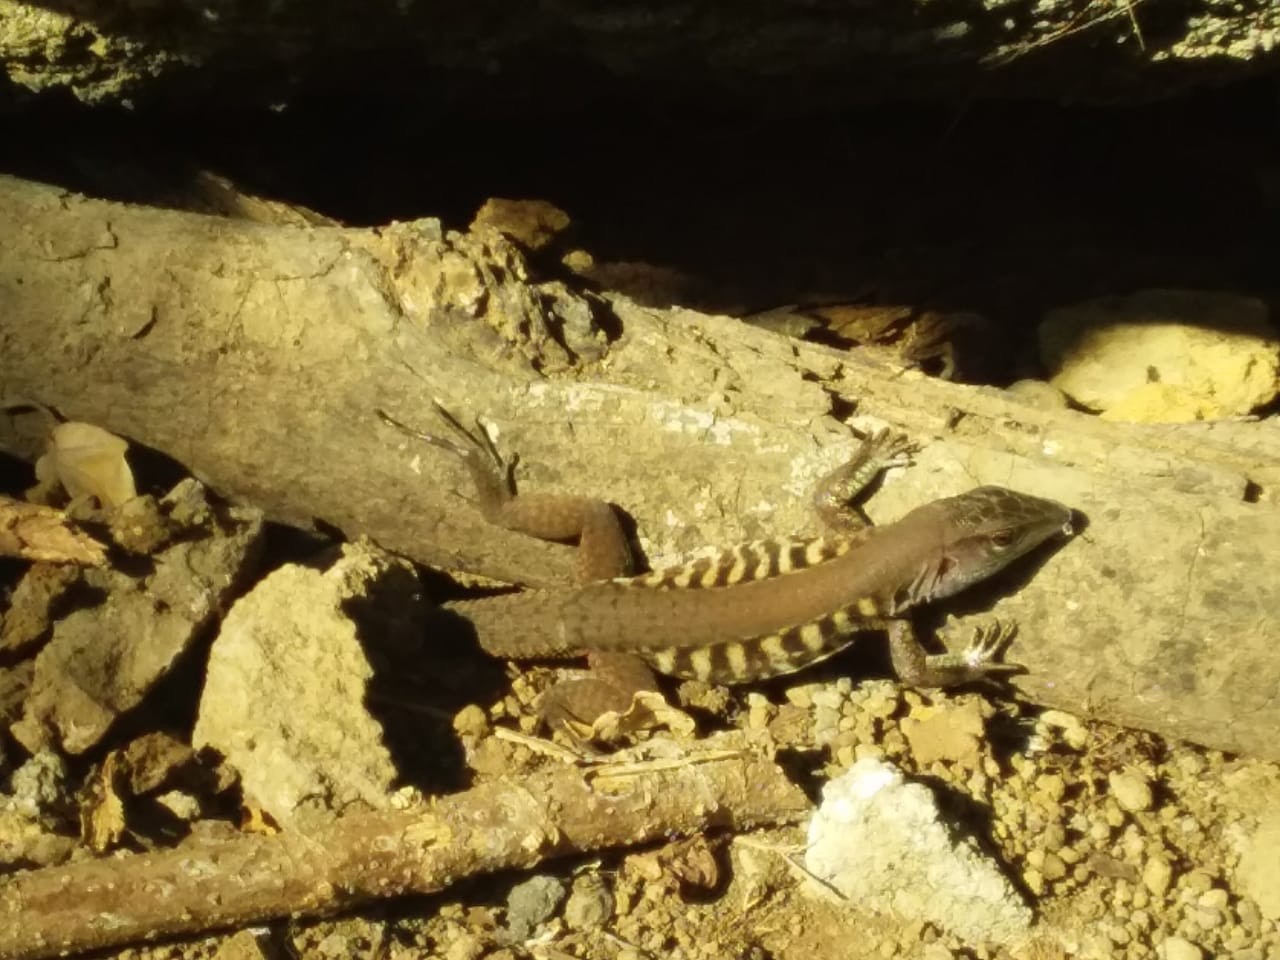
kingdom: Animalia
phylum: Chordata
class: Squamata
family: Teiidae
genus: Holcosus
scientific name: Holcosus undulatus
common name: Rainbow ameiva
